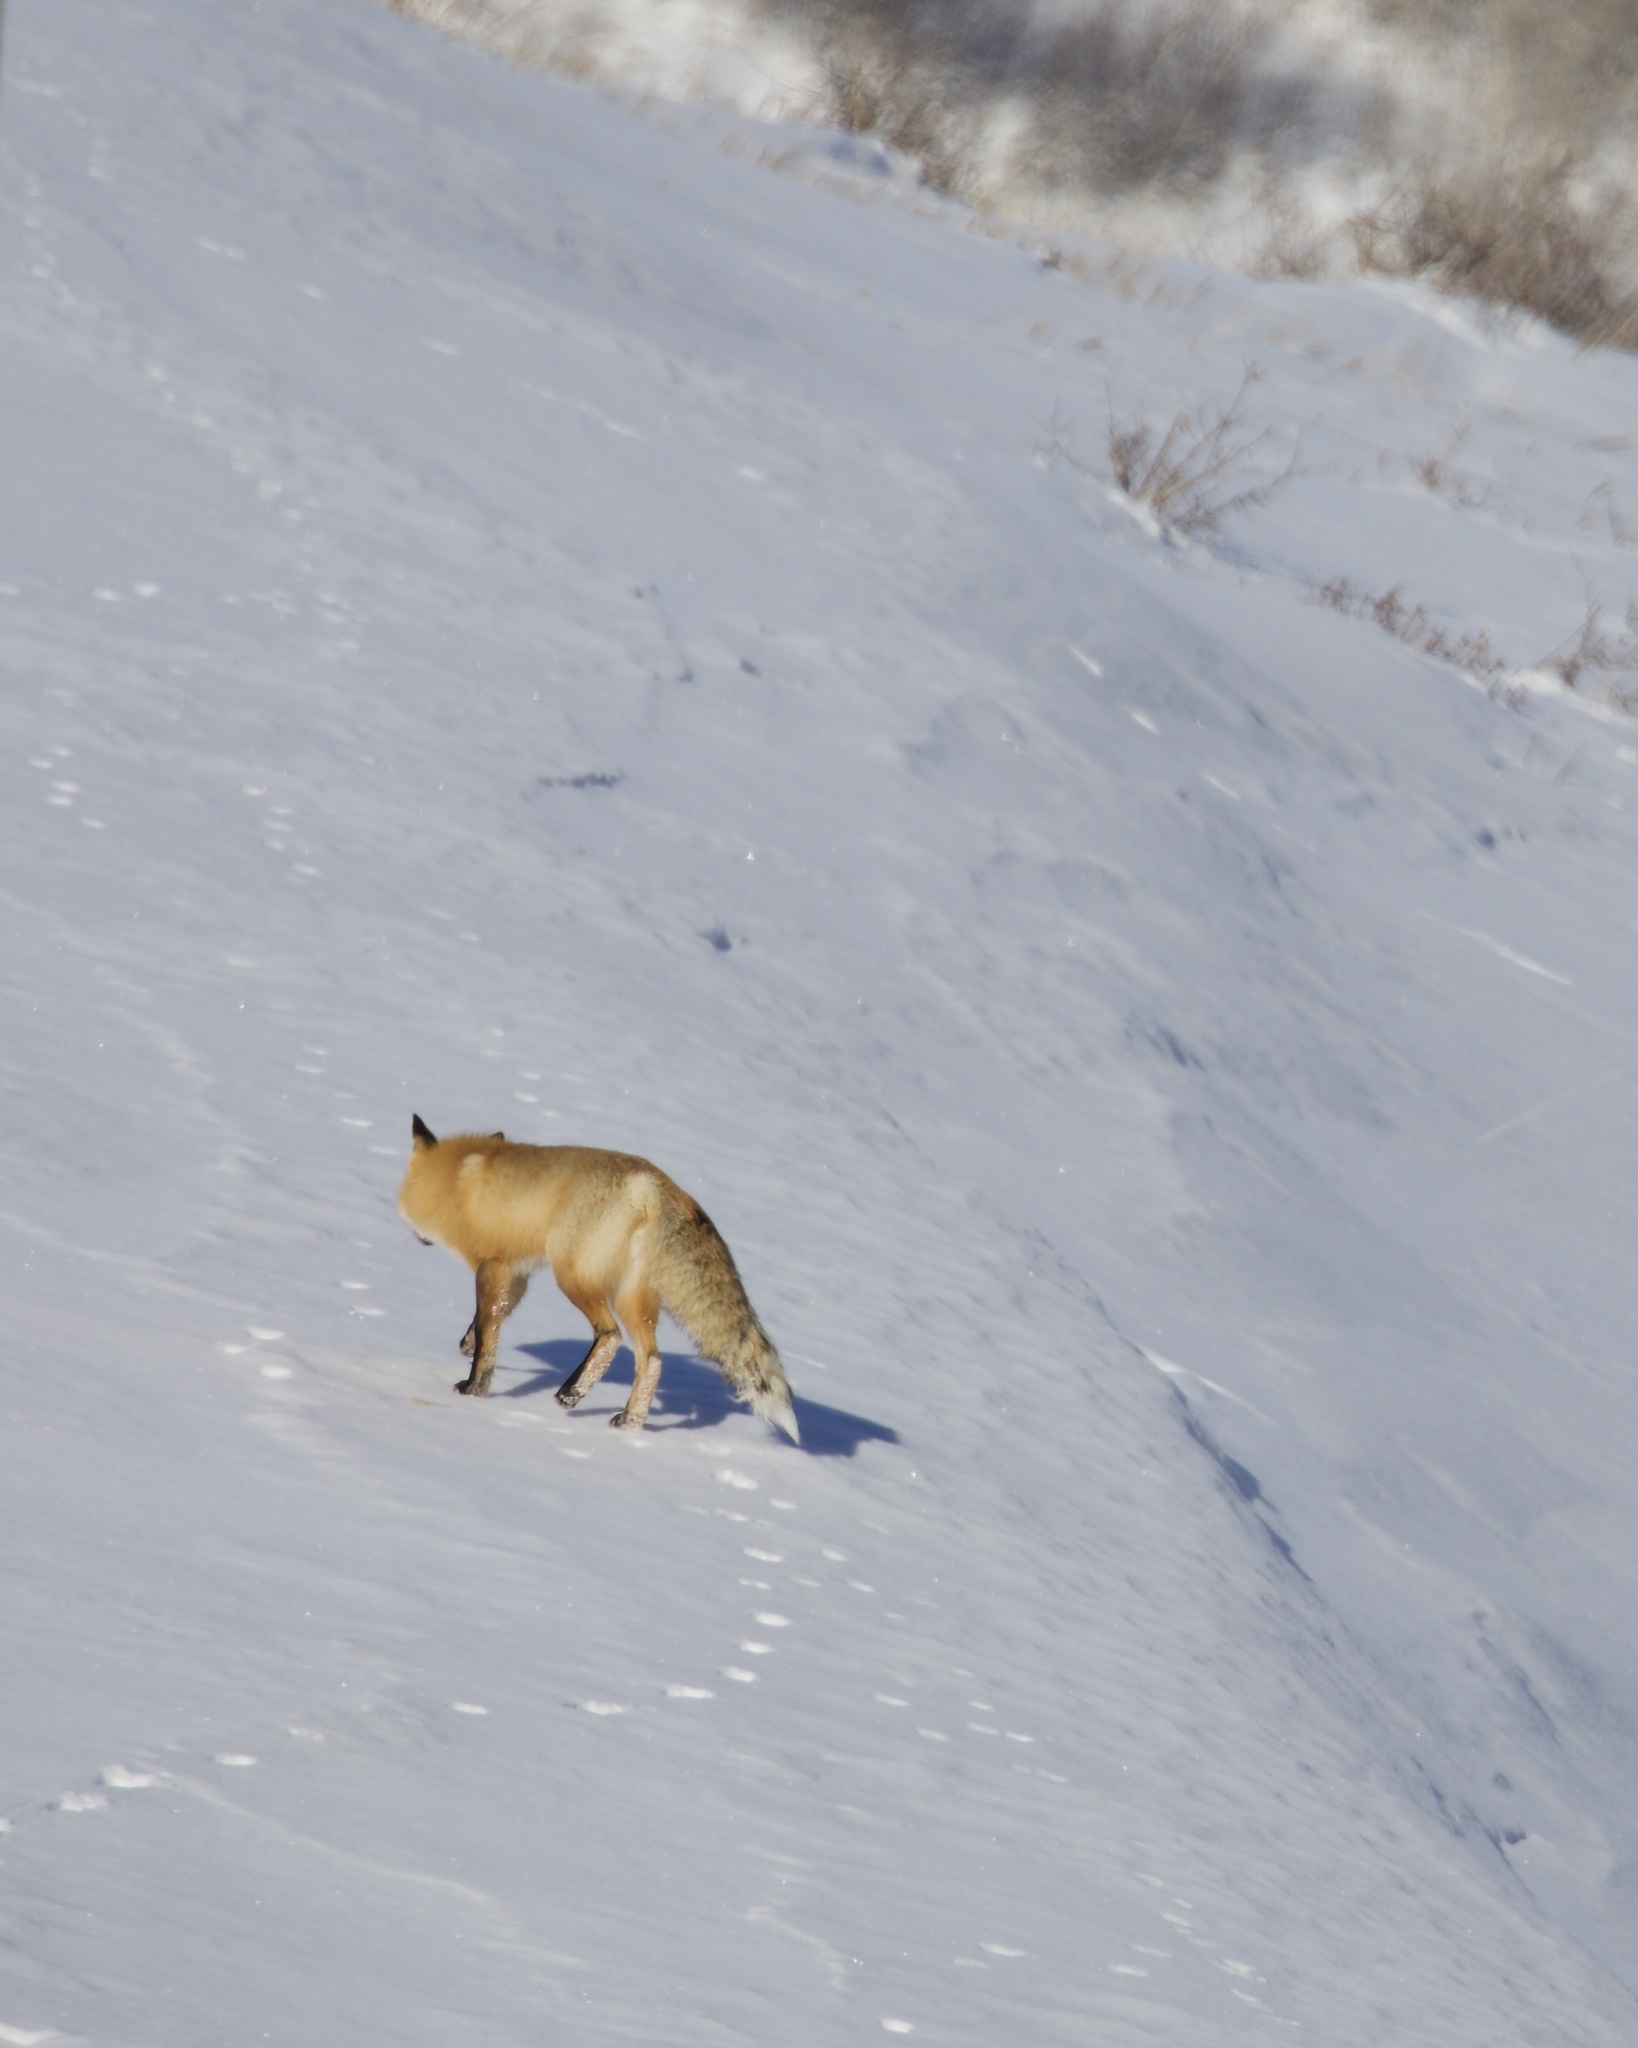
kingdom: Animalia
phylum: Chordata
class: Mammalia
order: Carnivora
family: Canidae
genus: Vulpes
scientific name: Vulpes vulpes
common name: Red fox
